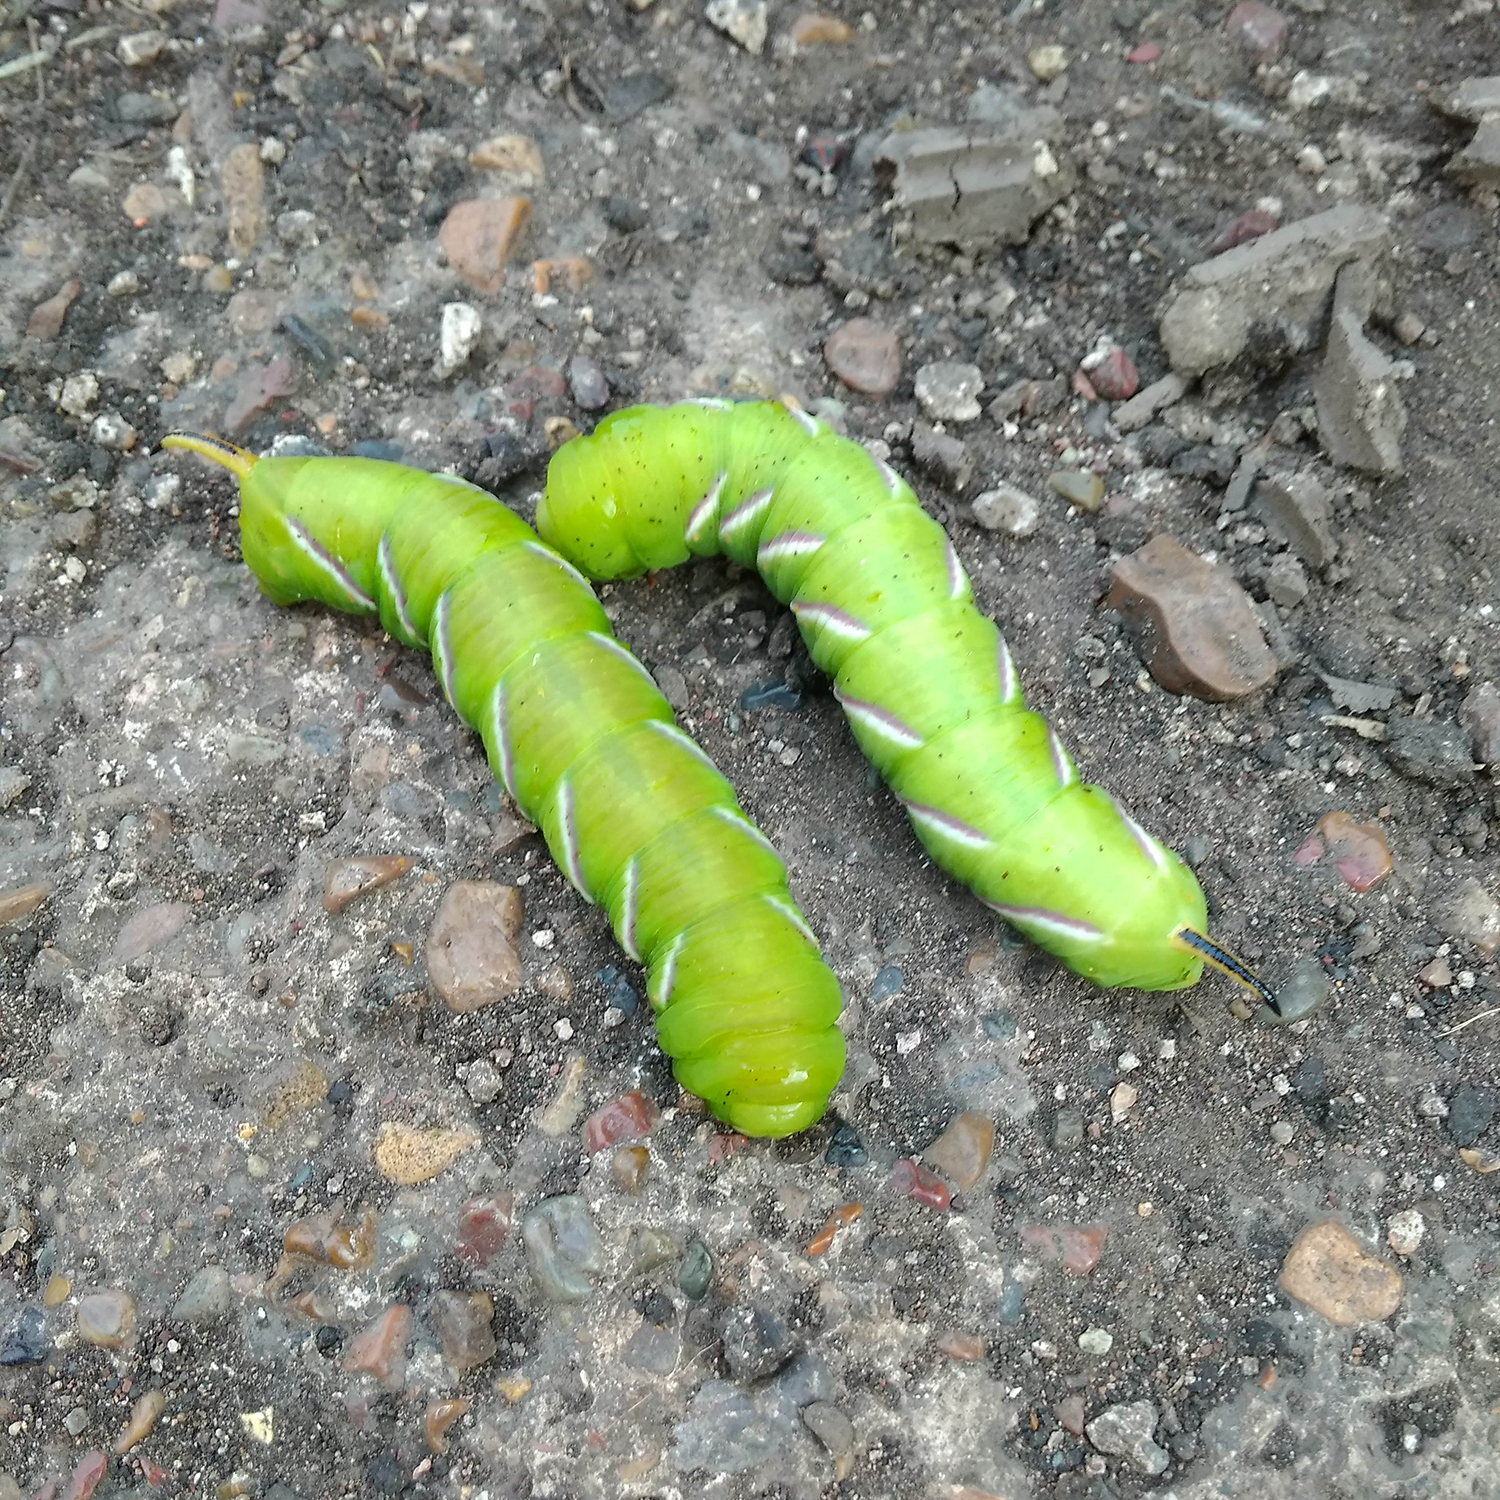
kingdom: Animalia
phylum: Arthropoda
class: Insecta
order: Lepidoptera
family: Sphingidae
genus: Sphinx
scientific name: Sphinx ligustri
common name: Privet hawk-moth
